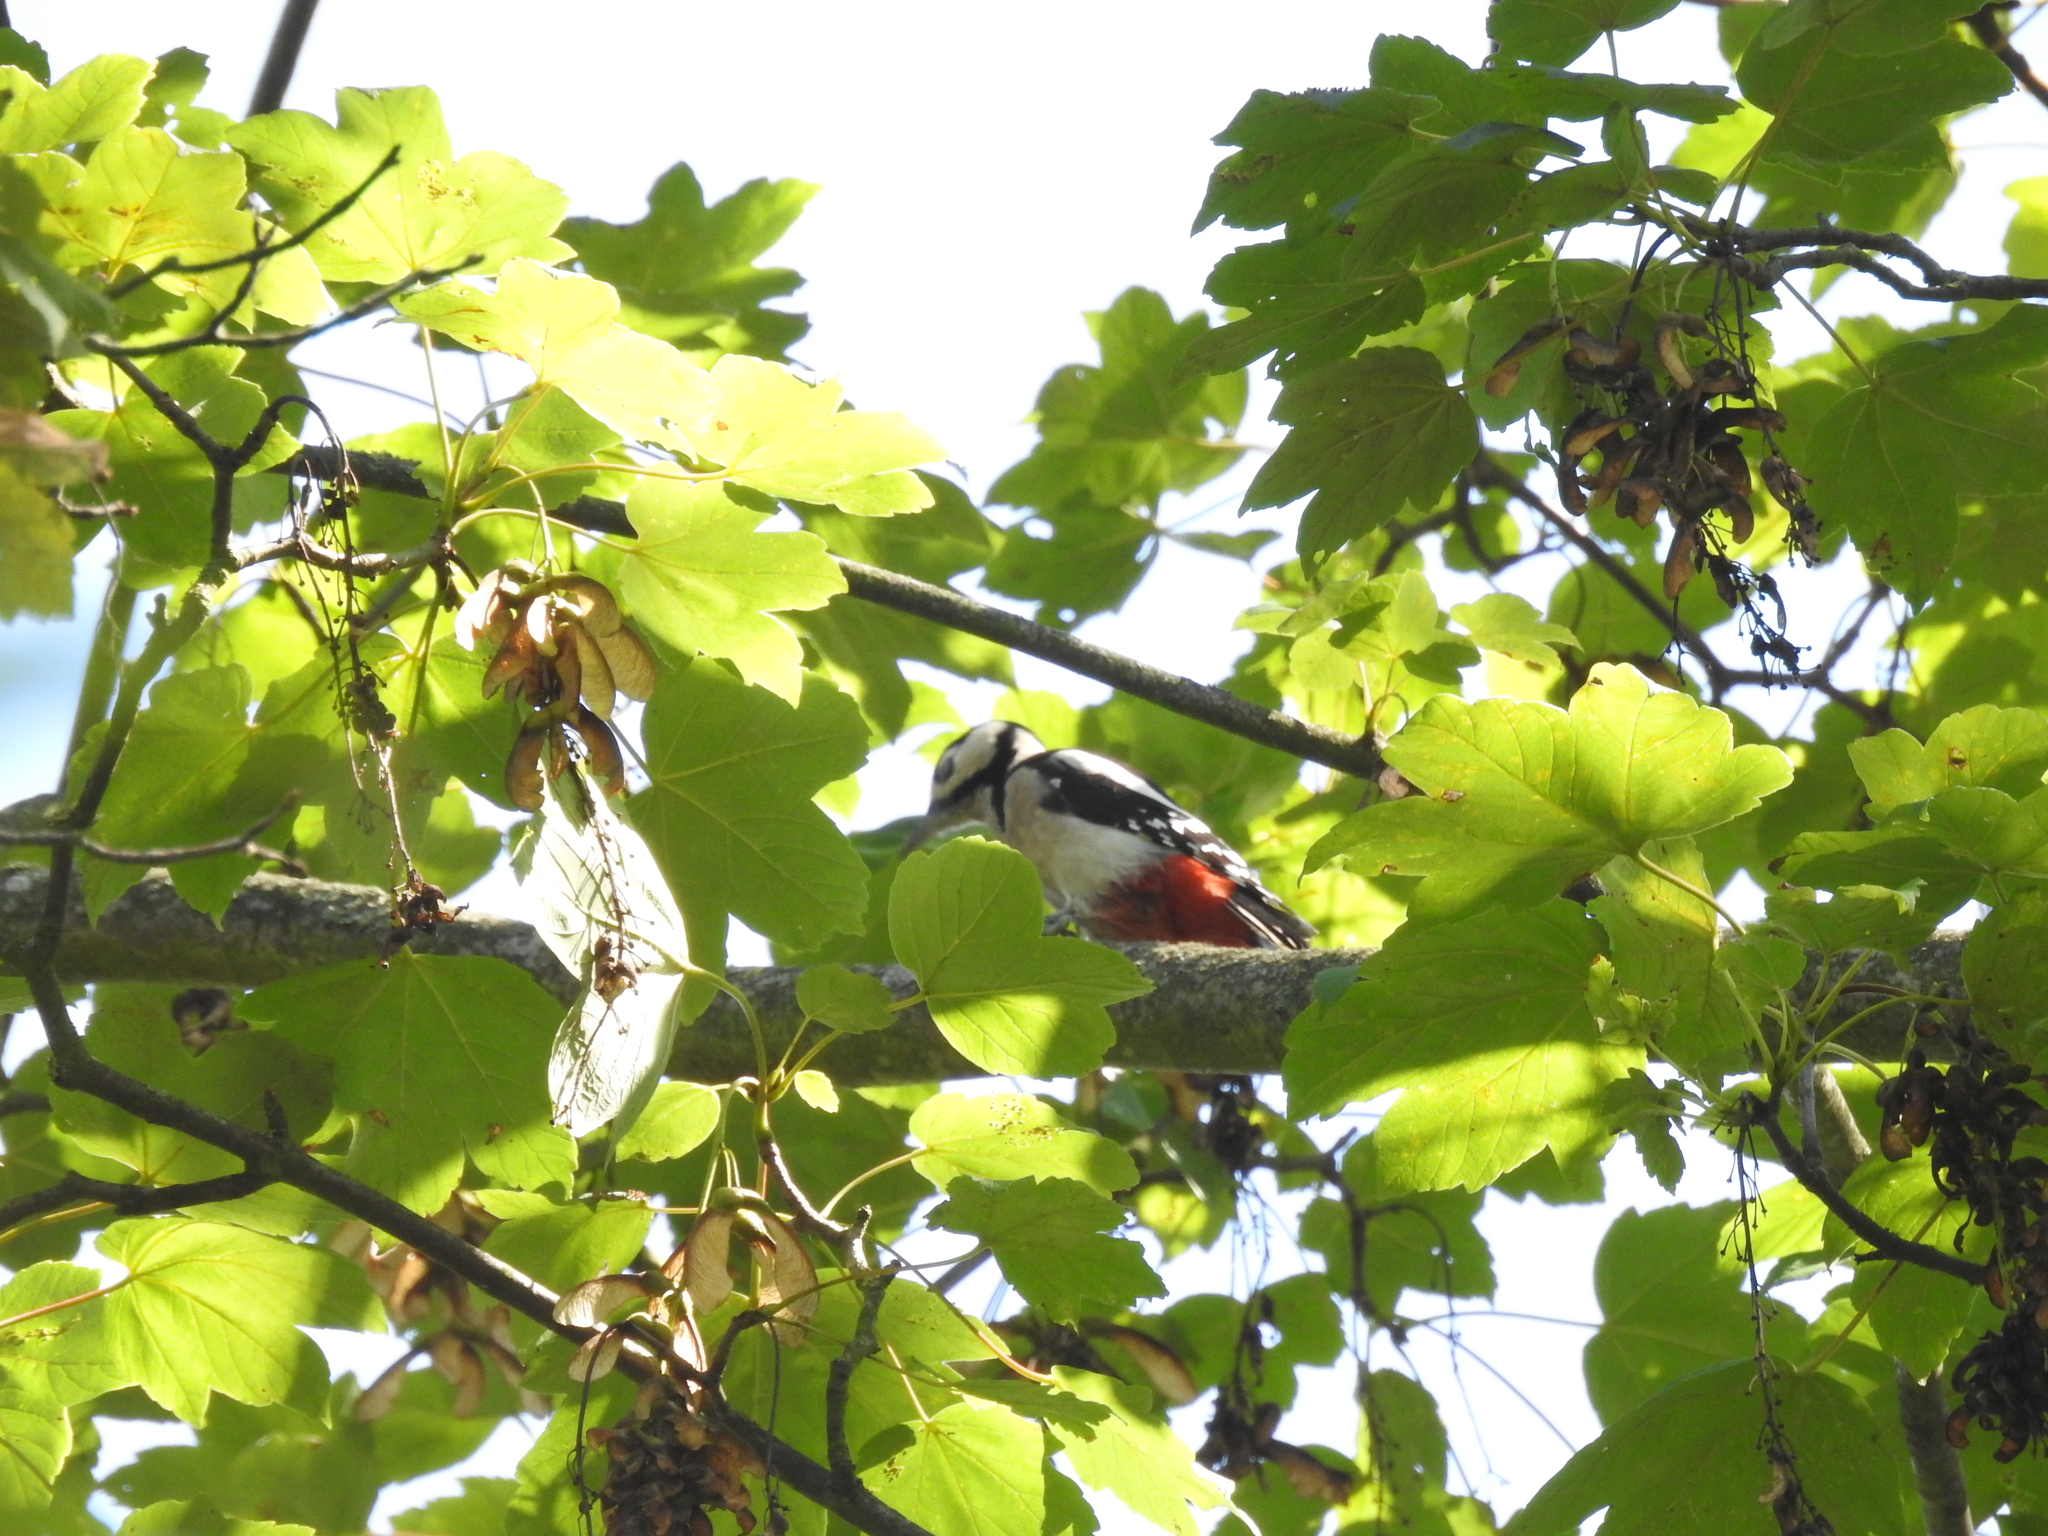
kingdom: Animalia
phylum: Chordata
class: Aves
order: Piciformes
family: Picidae
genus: Dendrocopos
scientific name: Dendrocopos major
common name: Great spotted woodpecker
